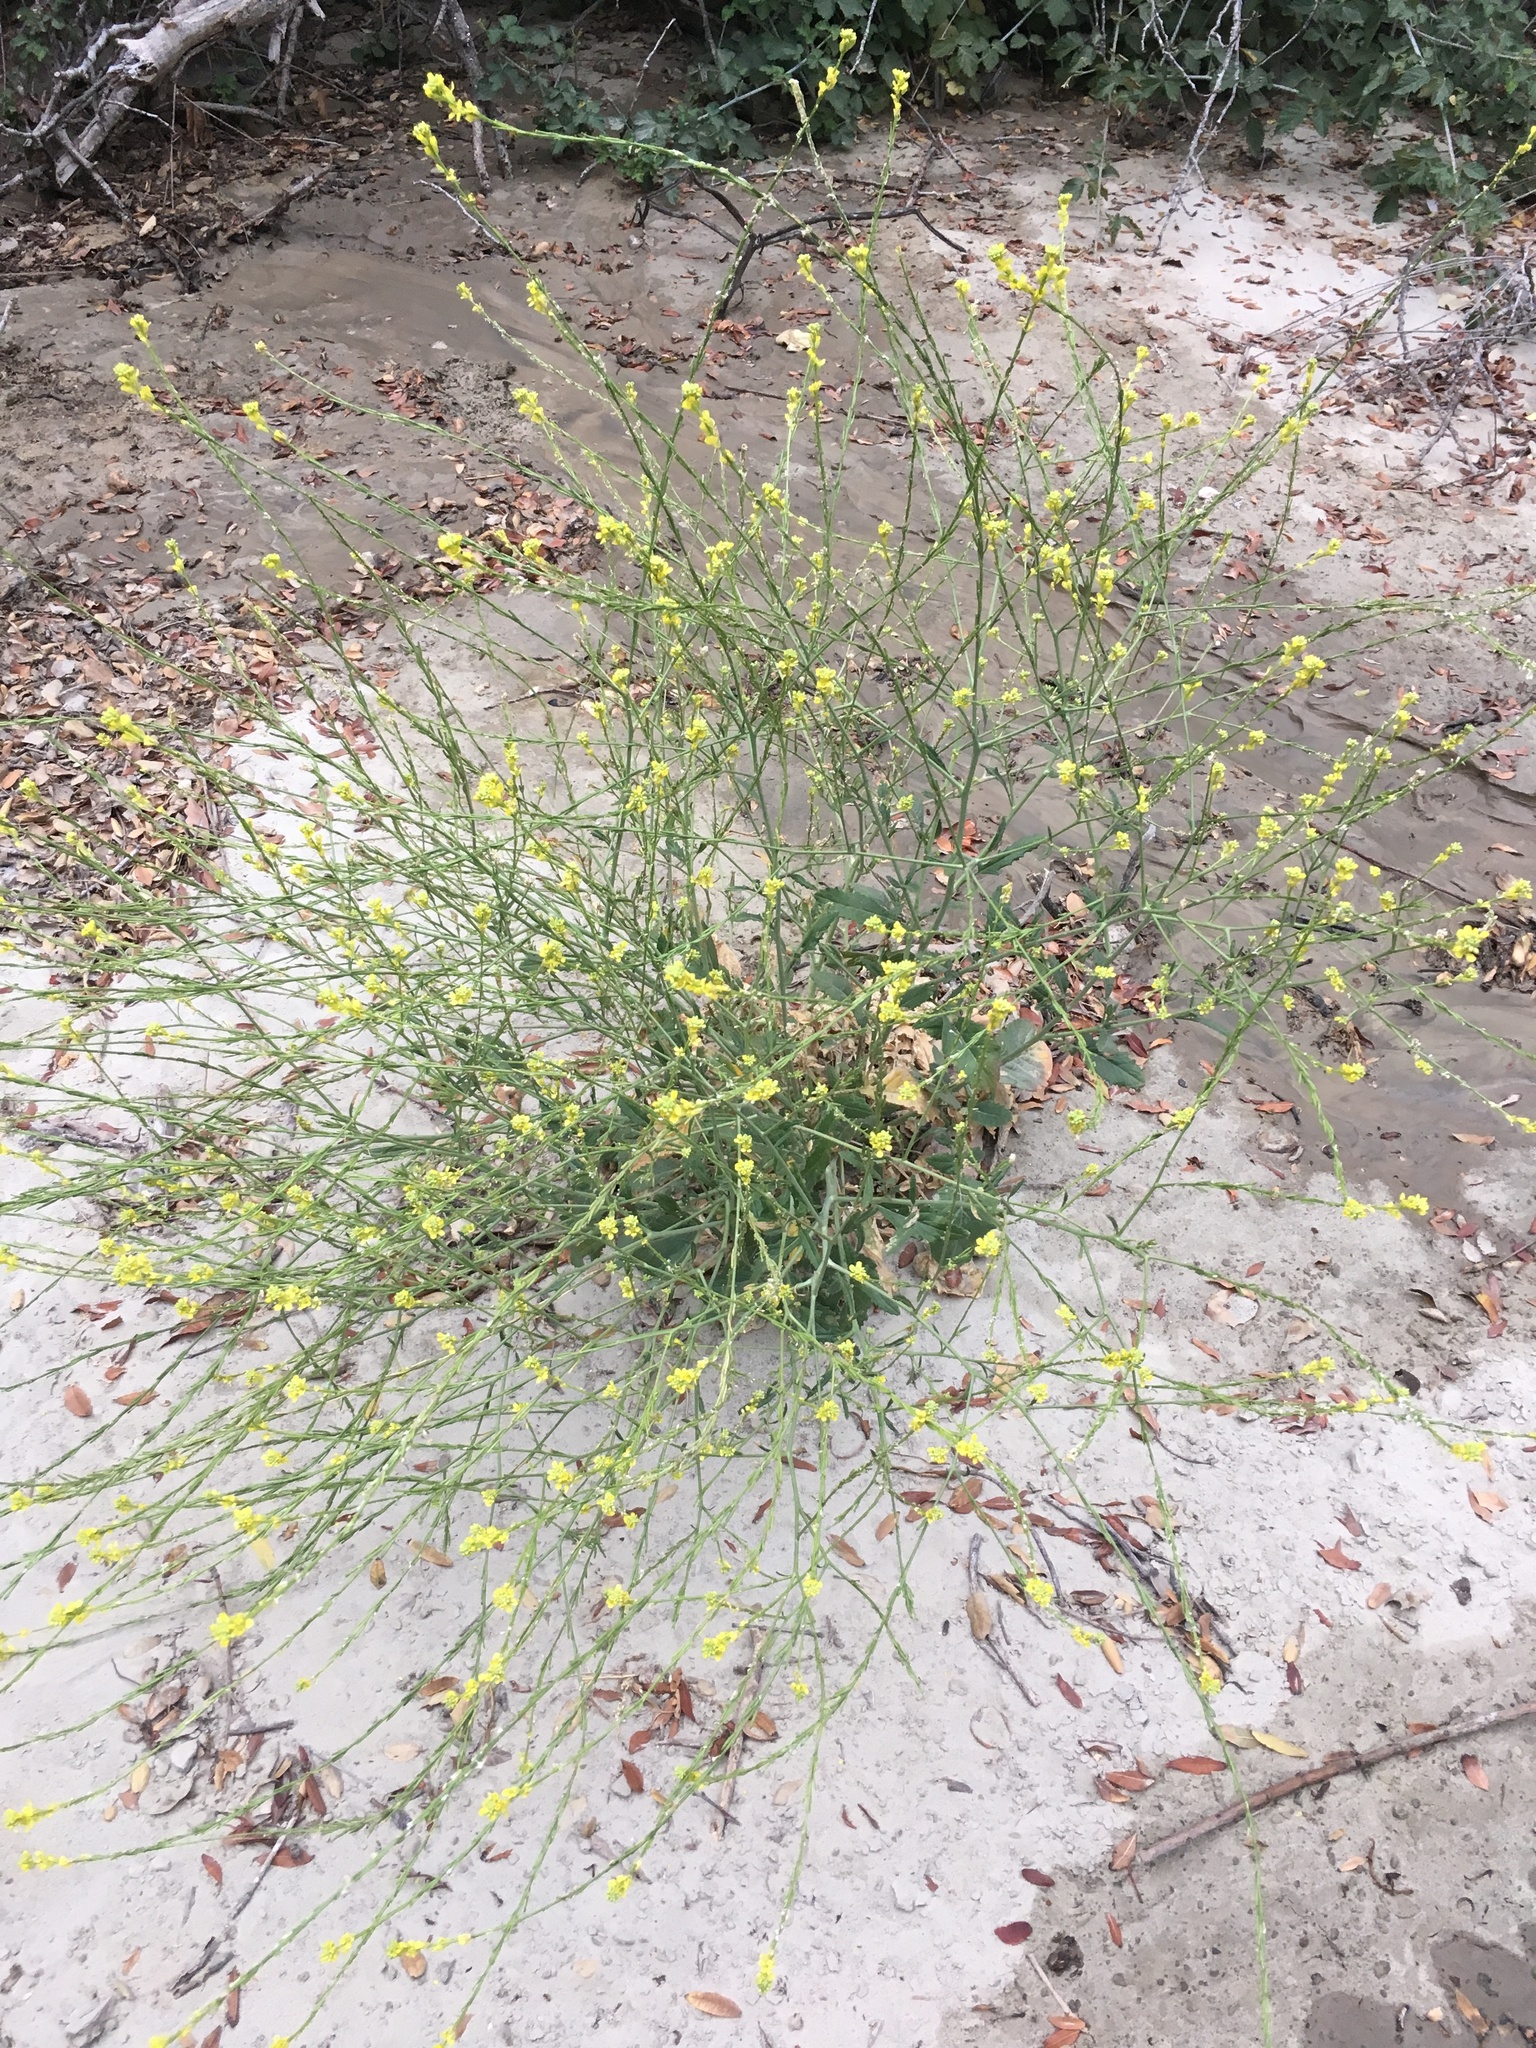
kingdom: Plantae
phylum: Tracheophyta
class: Magnoliopsida
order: Brassicales
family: Brassicaceae
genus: Hirschfeldia
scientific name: Hirschfeldia incana
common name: Hoary mustard
